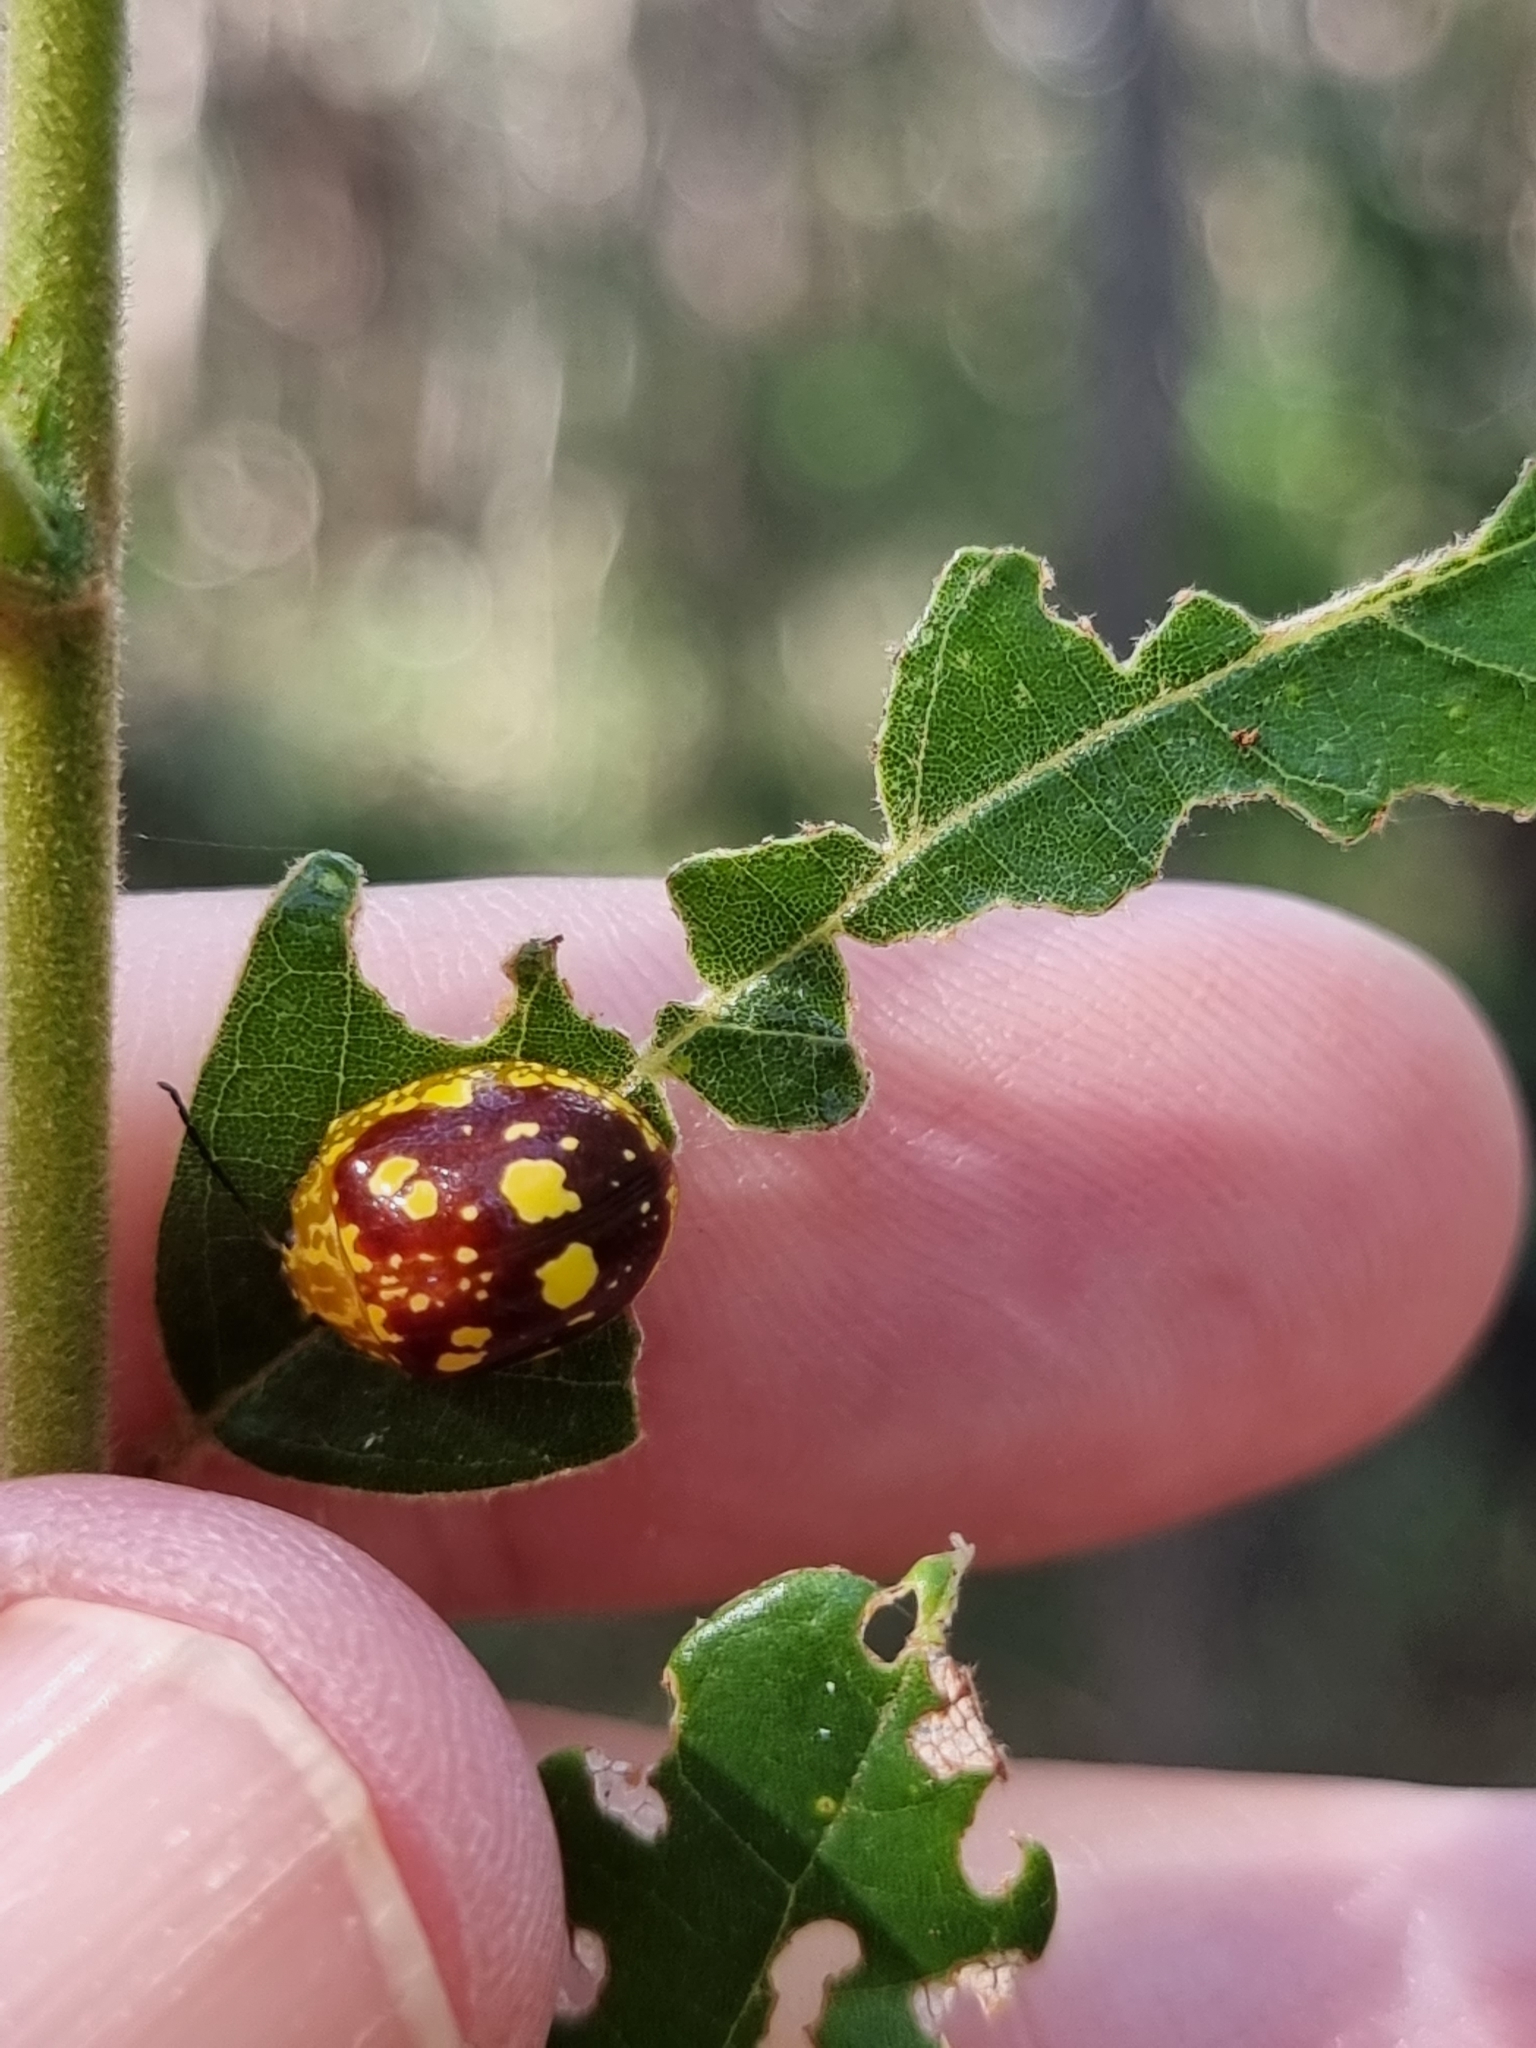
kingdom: Animalia
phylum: Arthropoda
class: Insecta
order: Coleoptera
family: Chrysomelidae
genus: Paropsis
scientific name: Paropsis maculata
